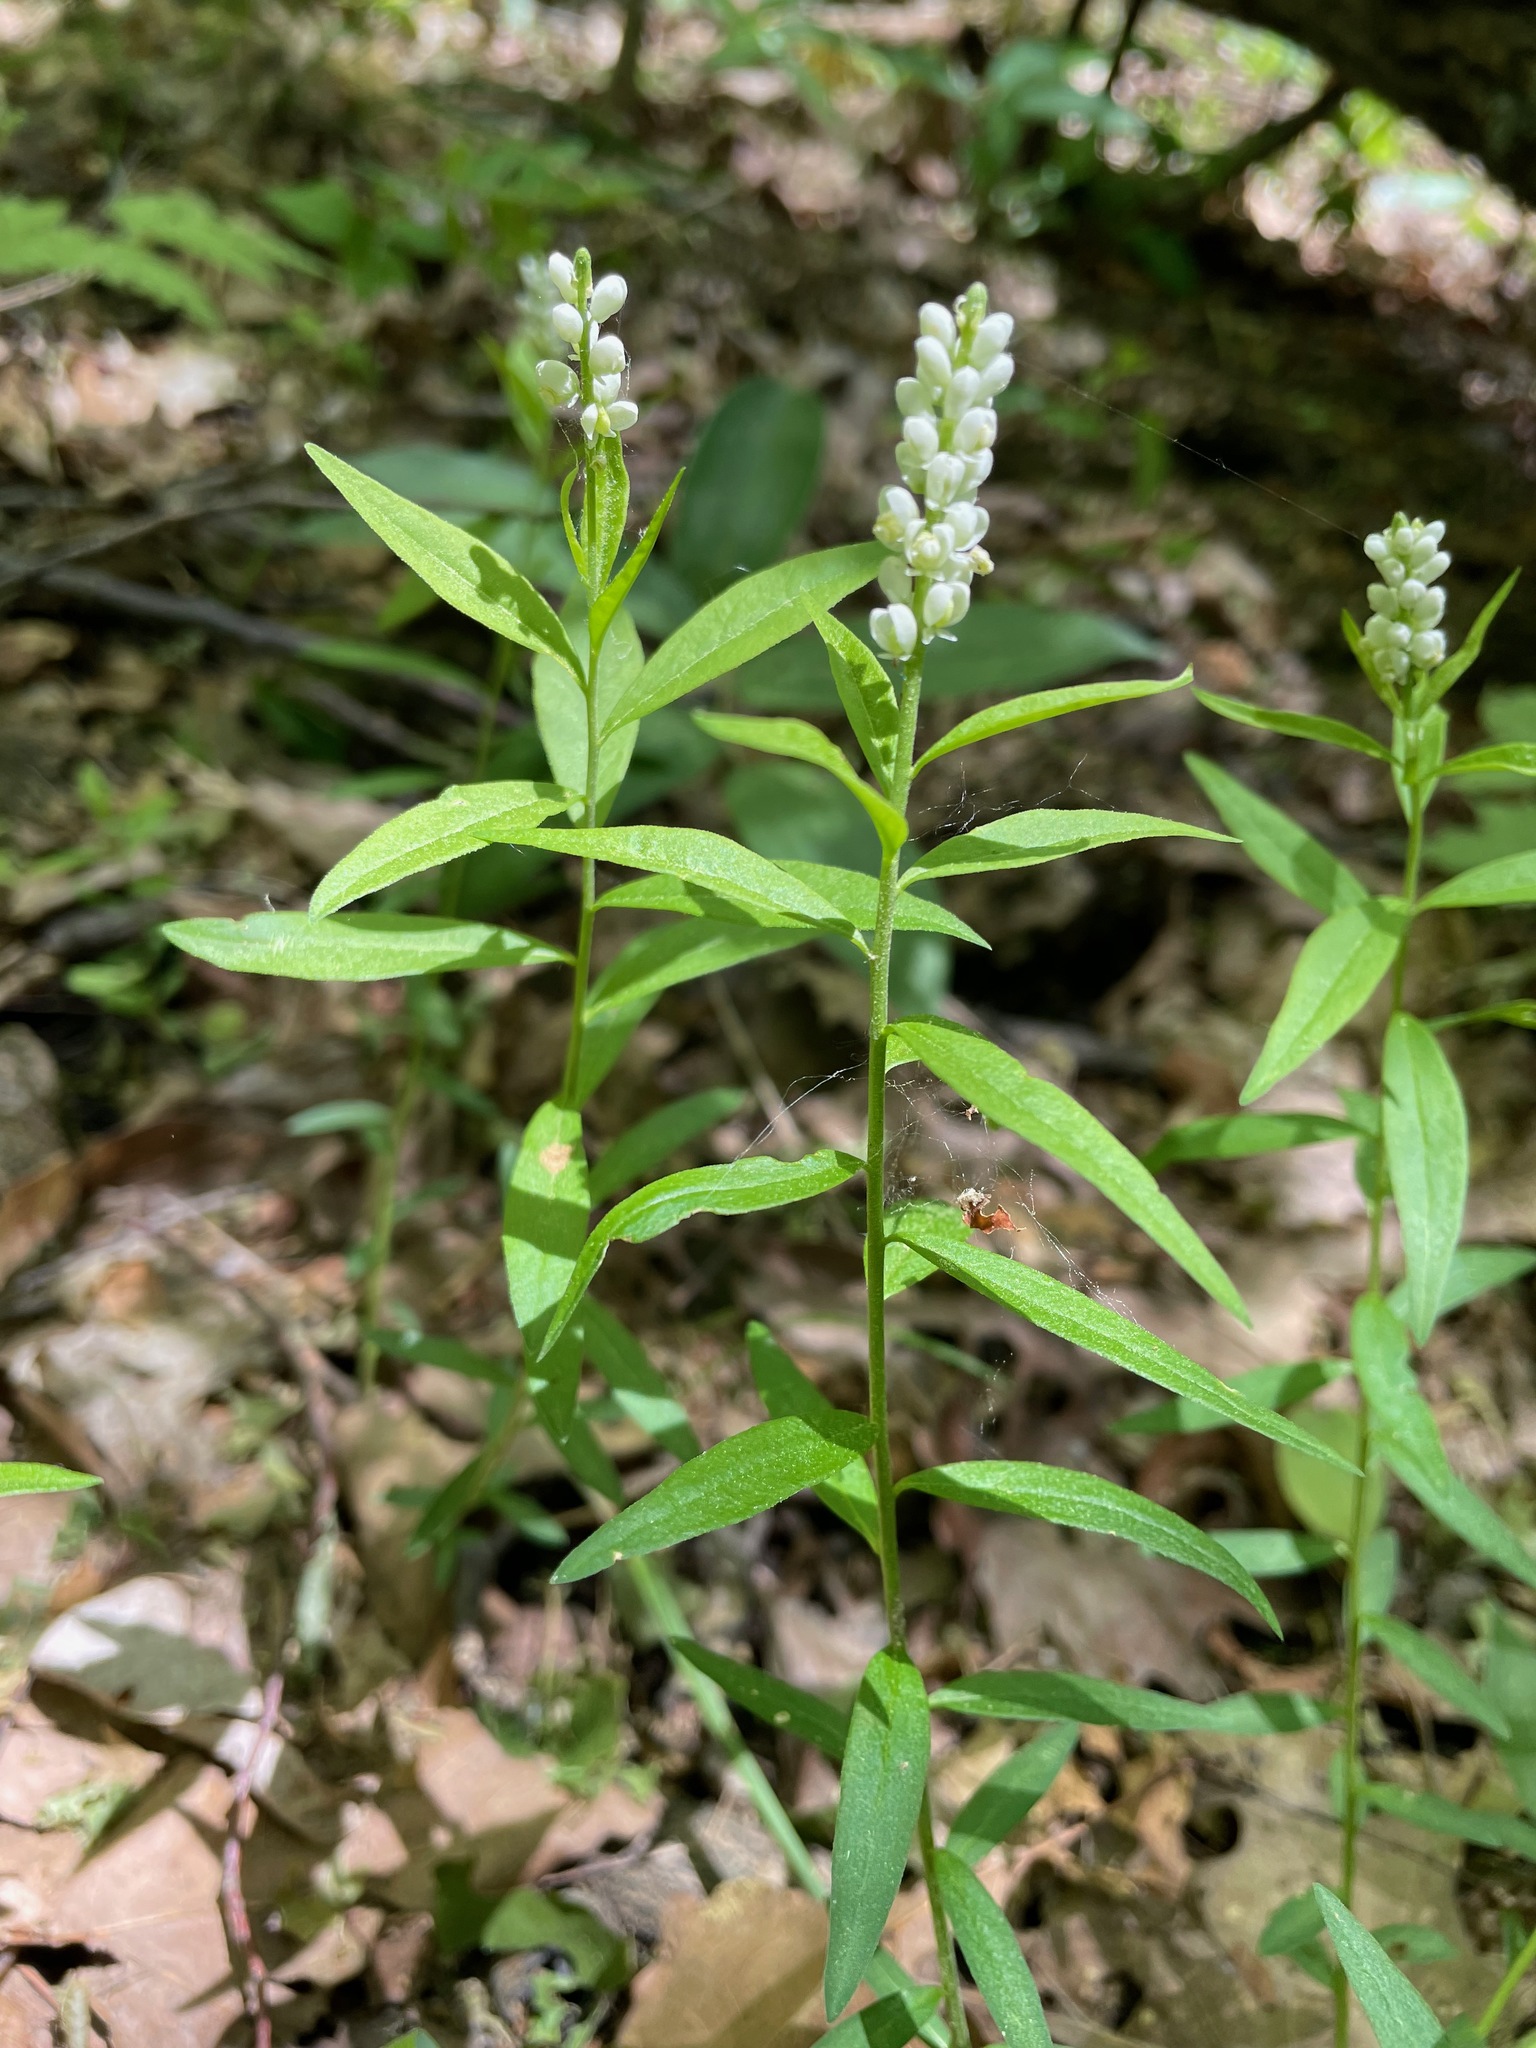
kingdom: Plantae
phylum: Tracheophyta
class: Magnoliopsida
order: Fabales
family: Polygalaceae
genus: Polygala
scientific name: Polygala senega
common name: Seneca snakeroot
